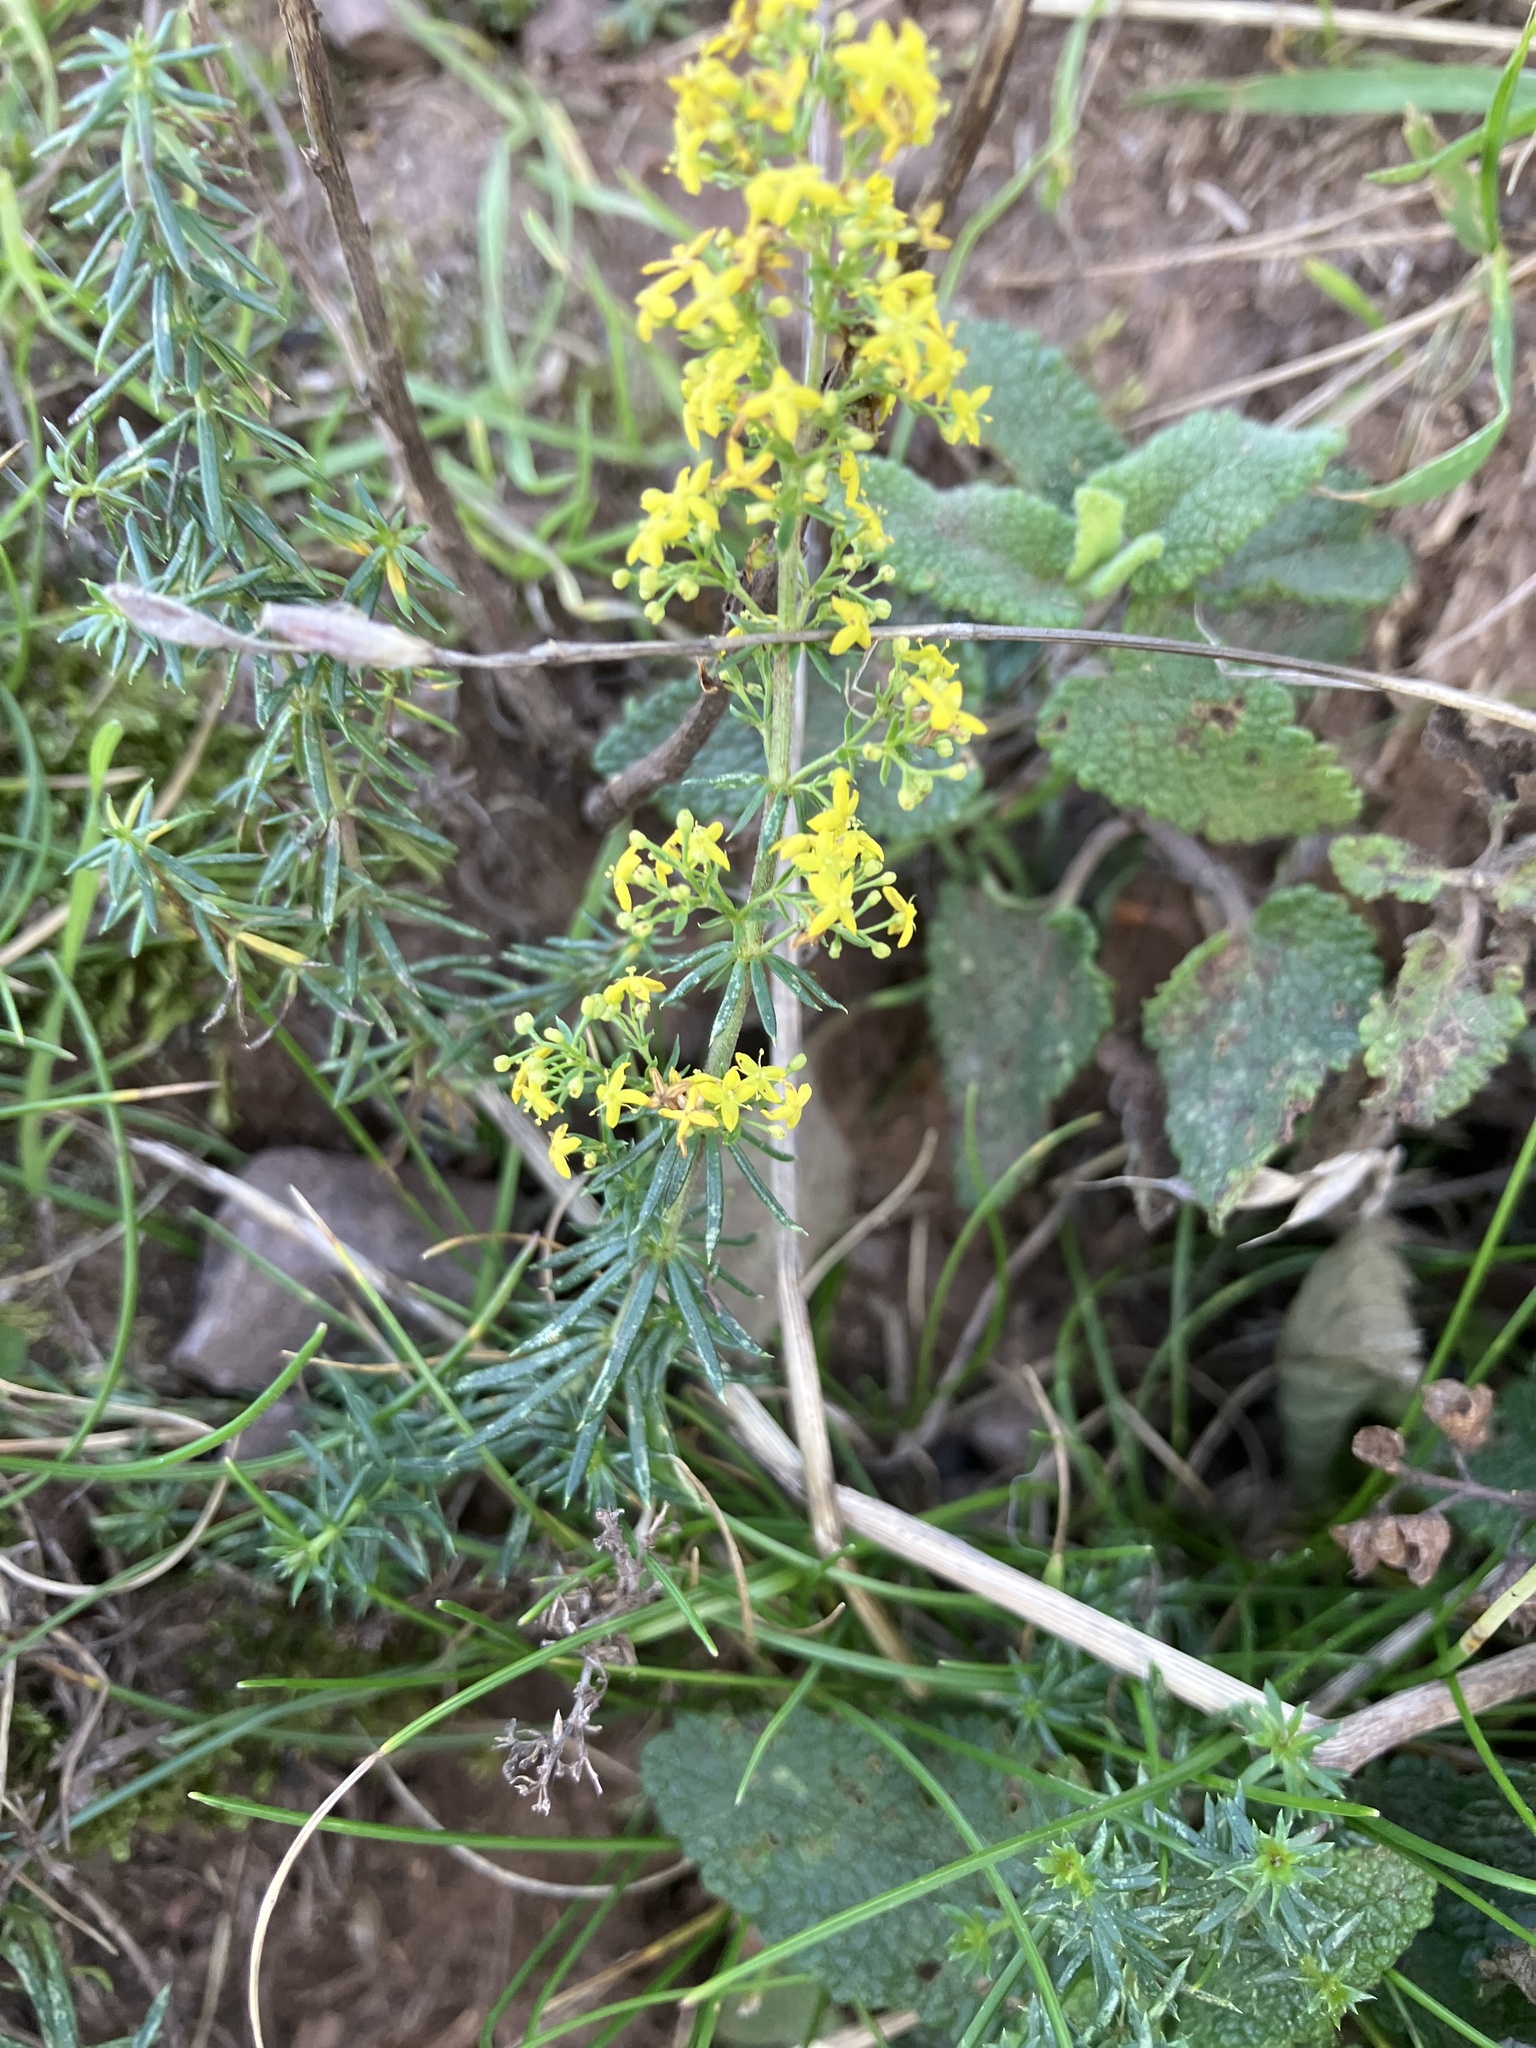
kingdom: Plantae
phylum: Tracheophyta
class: Magnoliopsida
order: Gentianales
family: Rubiaceae
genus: Galium
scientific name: Galium verum
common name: Lady's bedstraw
